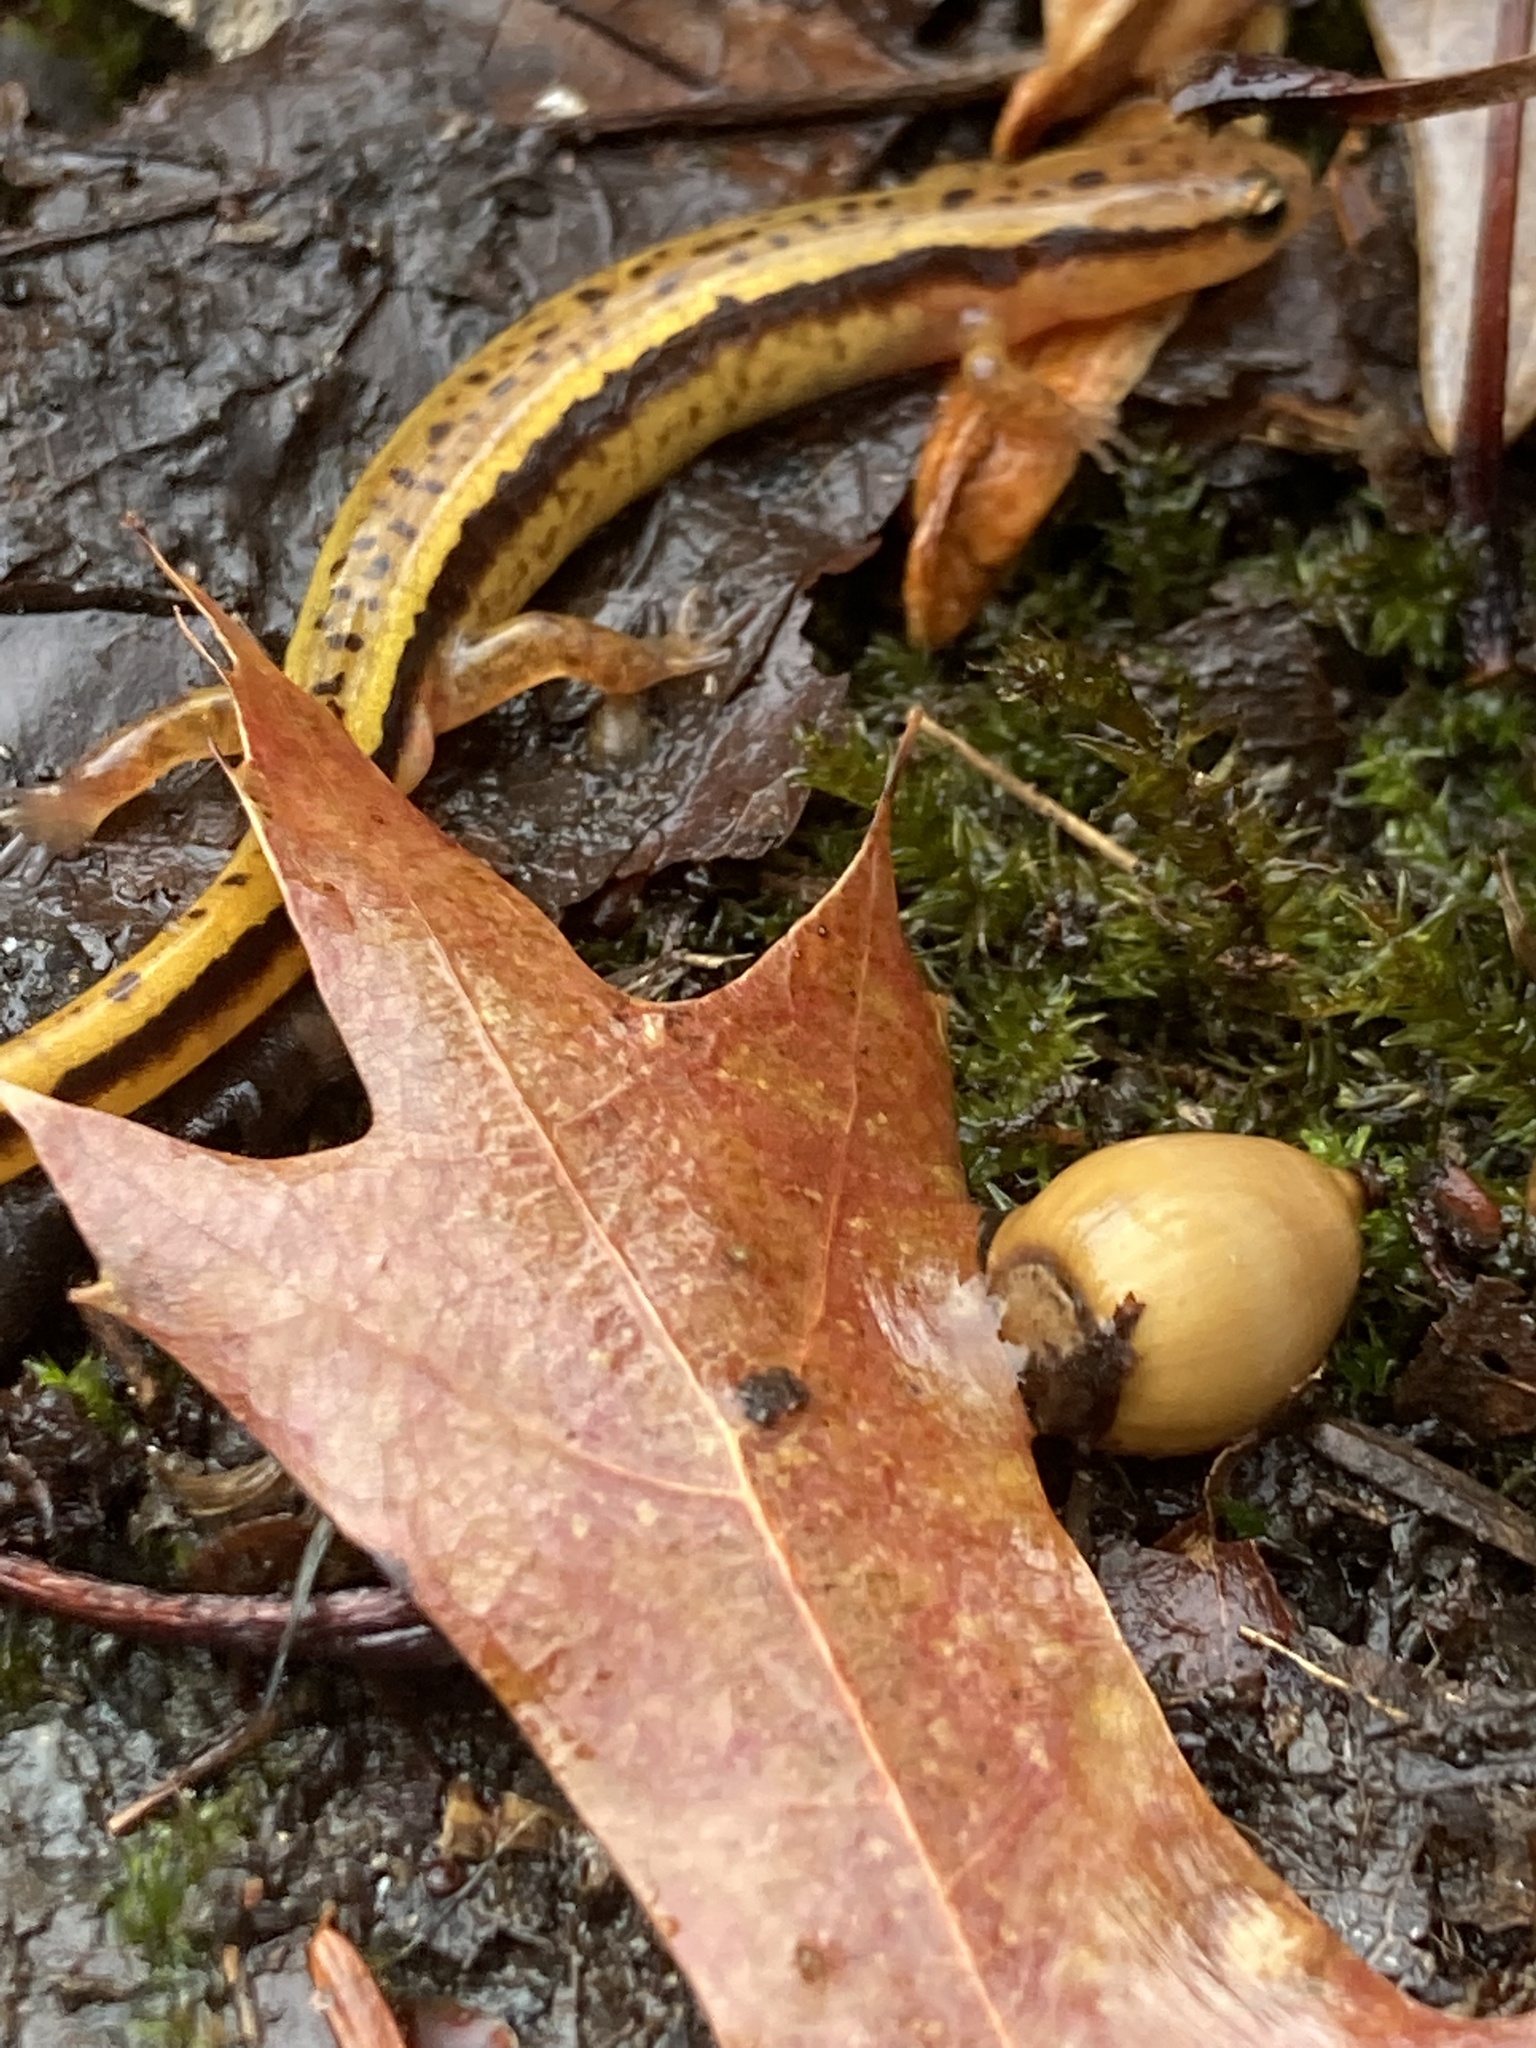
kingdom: Animalia
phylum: Chordata
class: Amphibia
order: Caudata
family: Plethodontidae
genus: Eurycea
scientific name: Eurycea cirrigera
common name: Southern two-lined salamander
